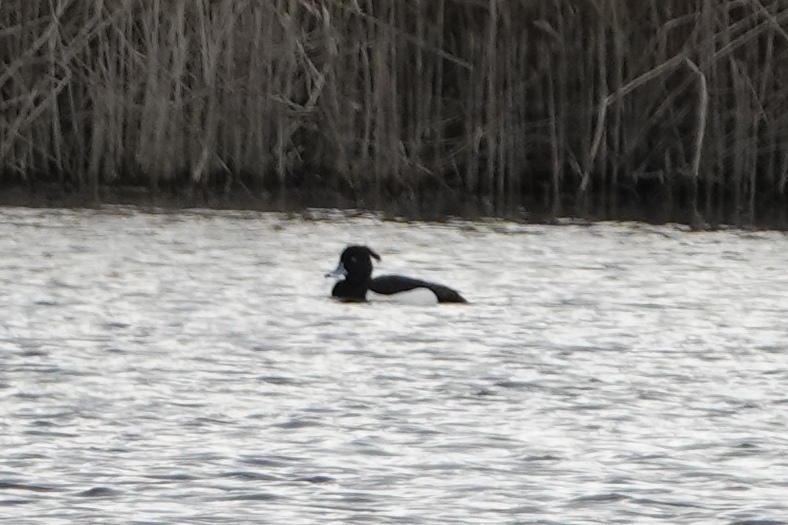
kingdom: Animalia
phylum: Chordata
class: Aves
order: Anseriformes
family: Anatidae
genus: Aythya
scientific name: Aythya fuligula
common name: Tufted duck
